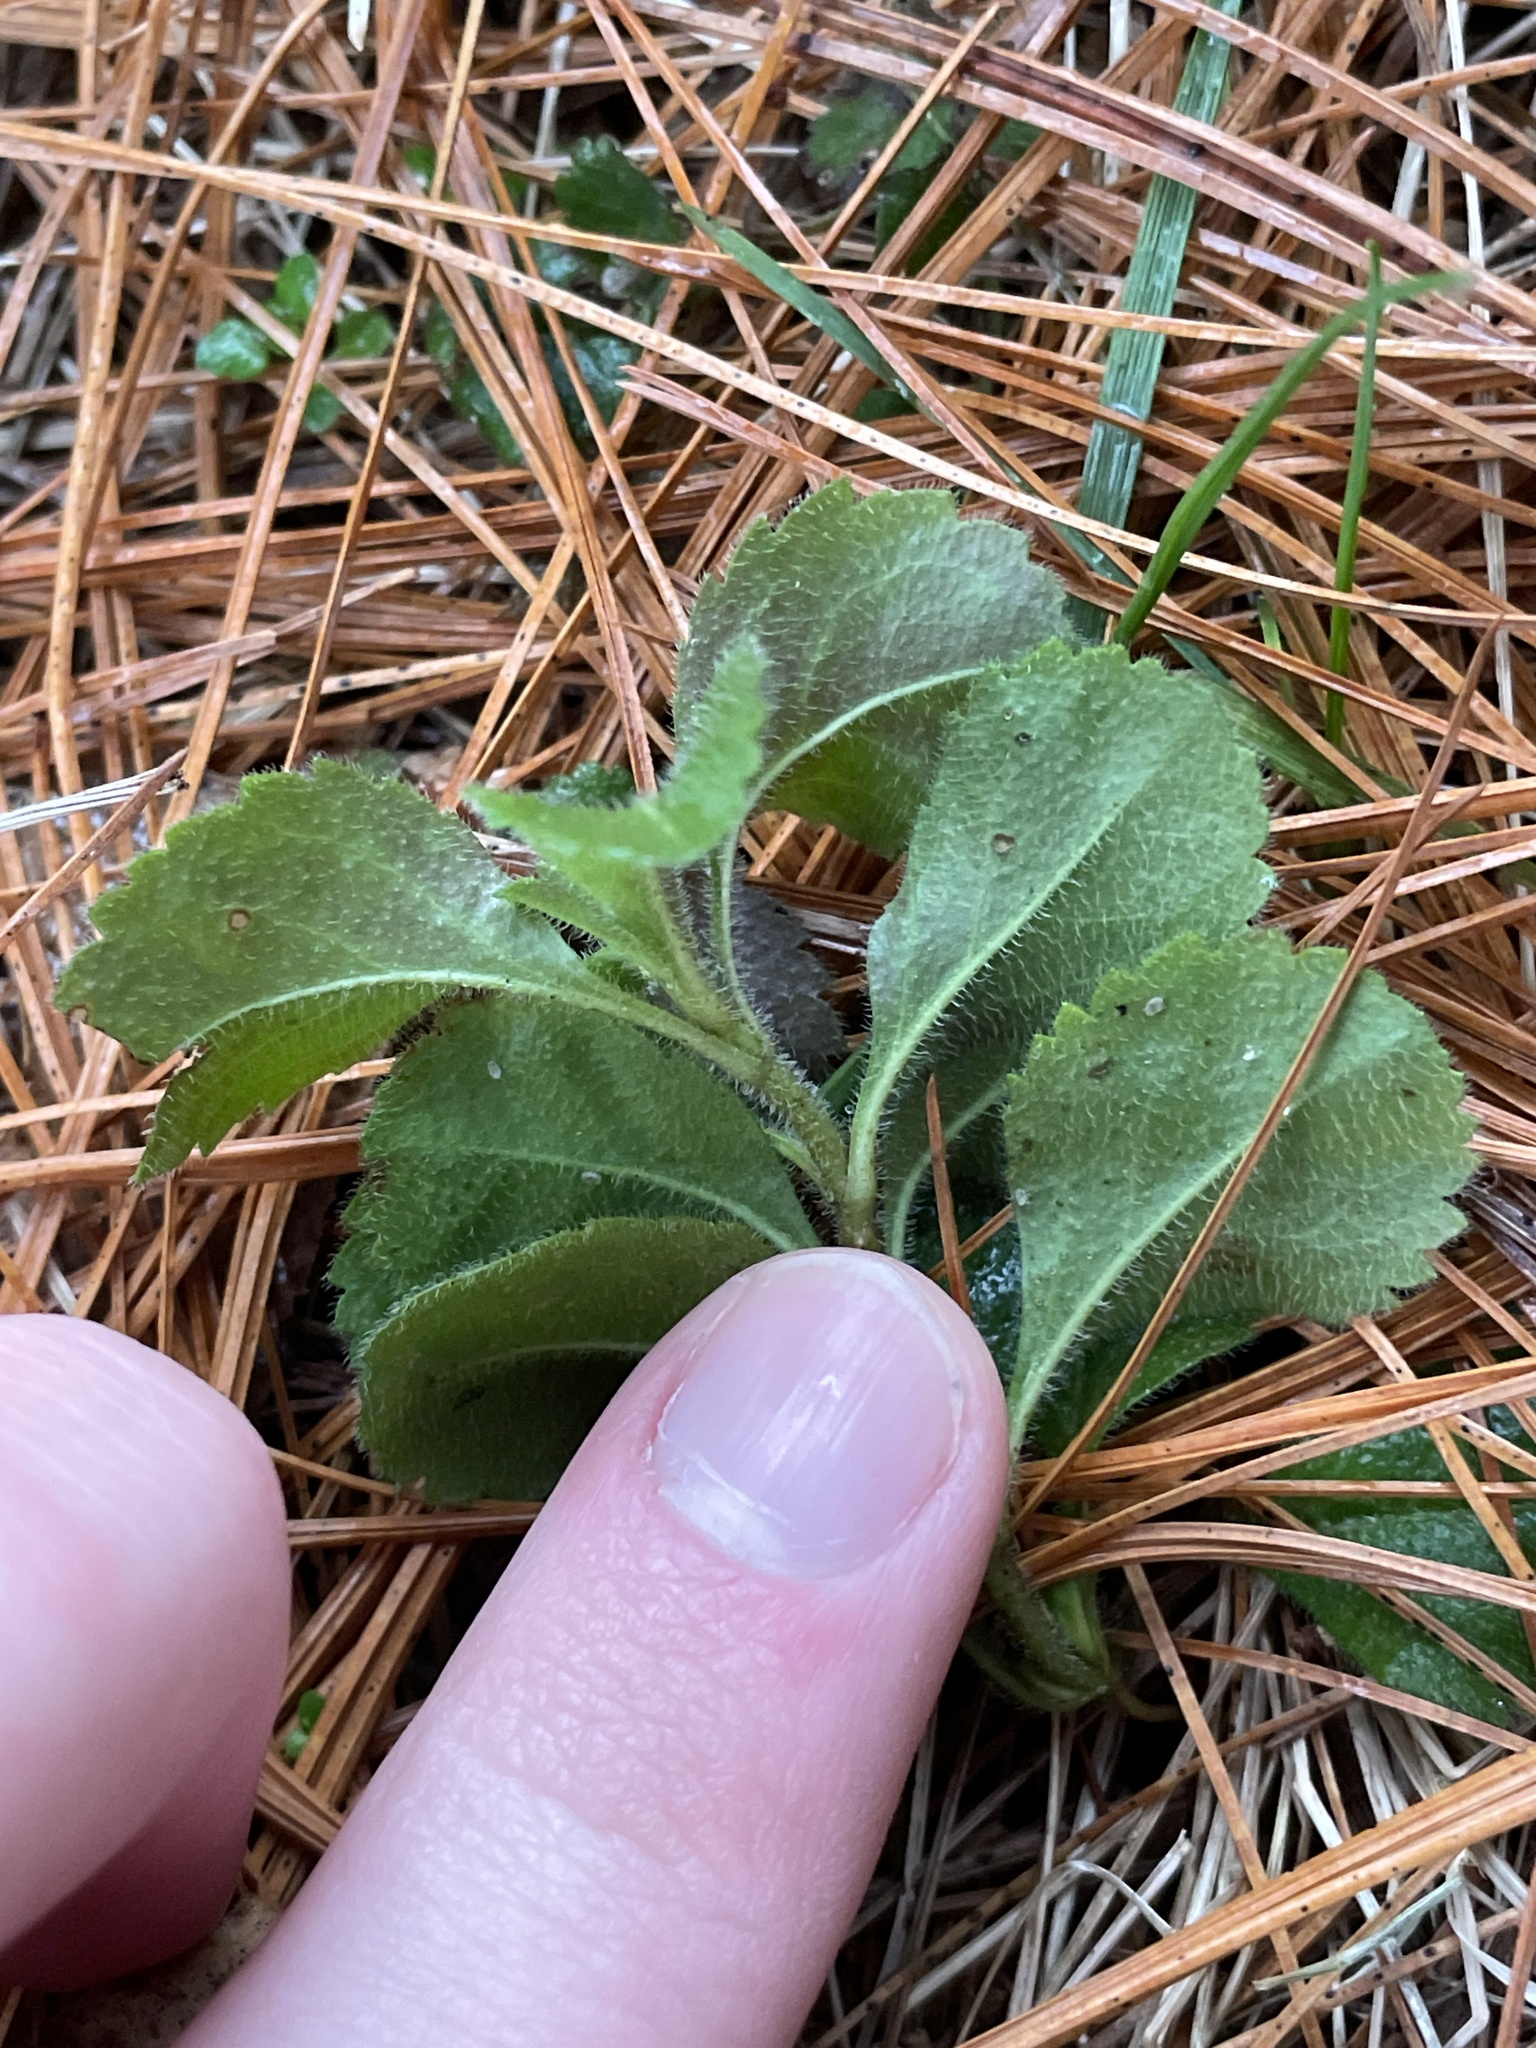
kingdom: Plantae
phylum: Tracheophyta
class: Magnoliopsida
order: Lamiales
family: Plantaginaceae
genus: Veronica
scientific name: Veronica officinalis
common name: Common speedwell
